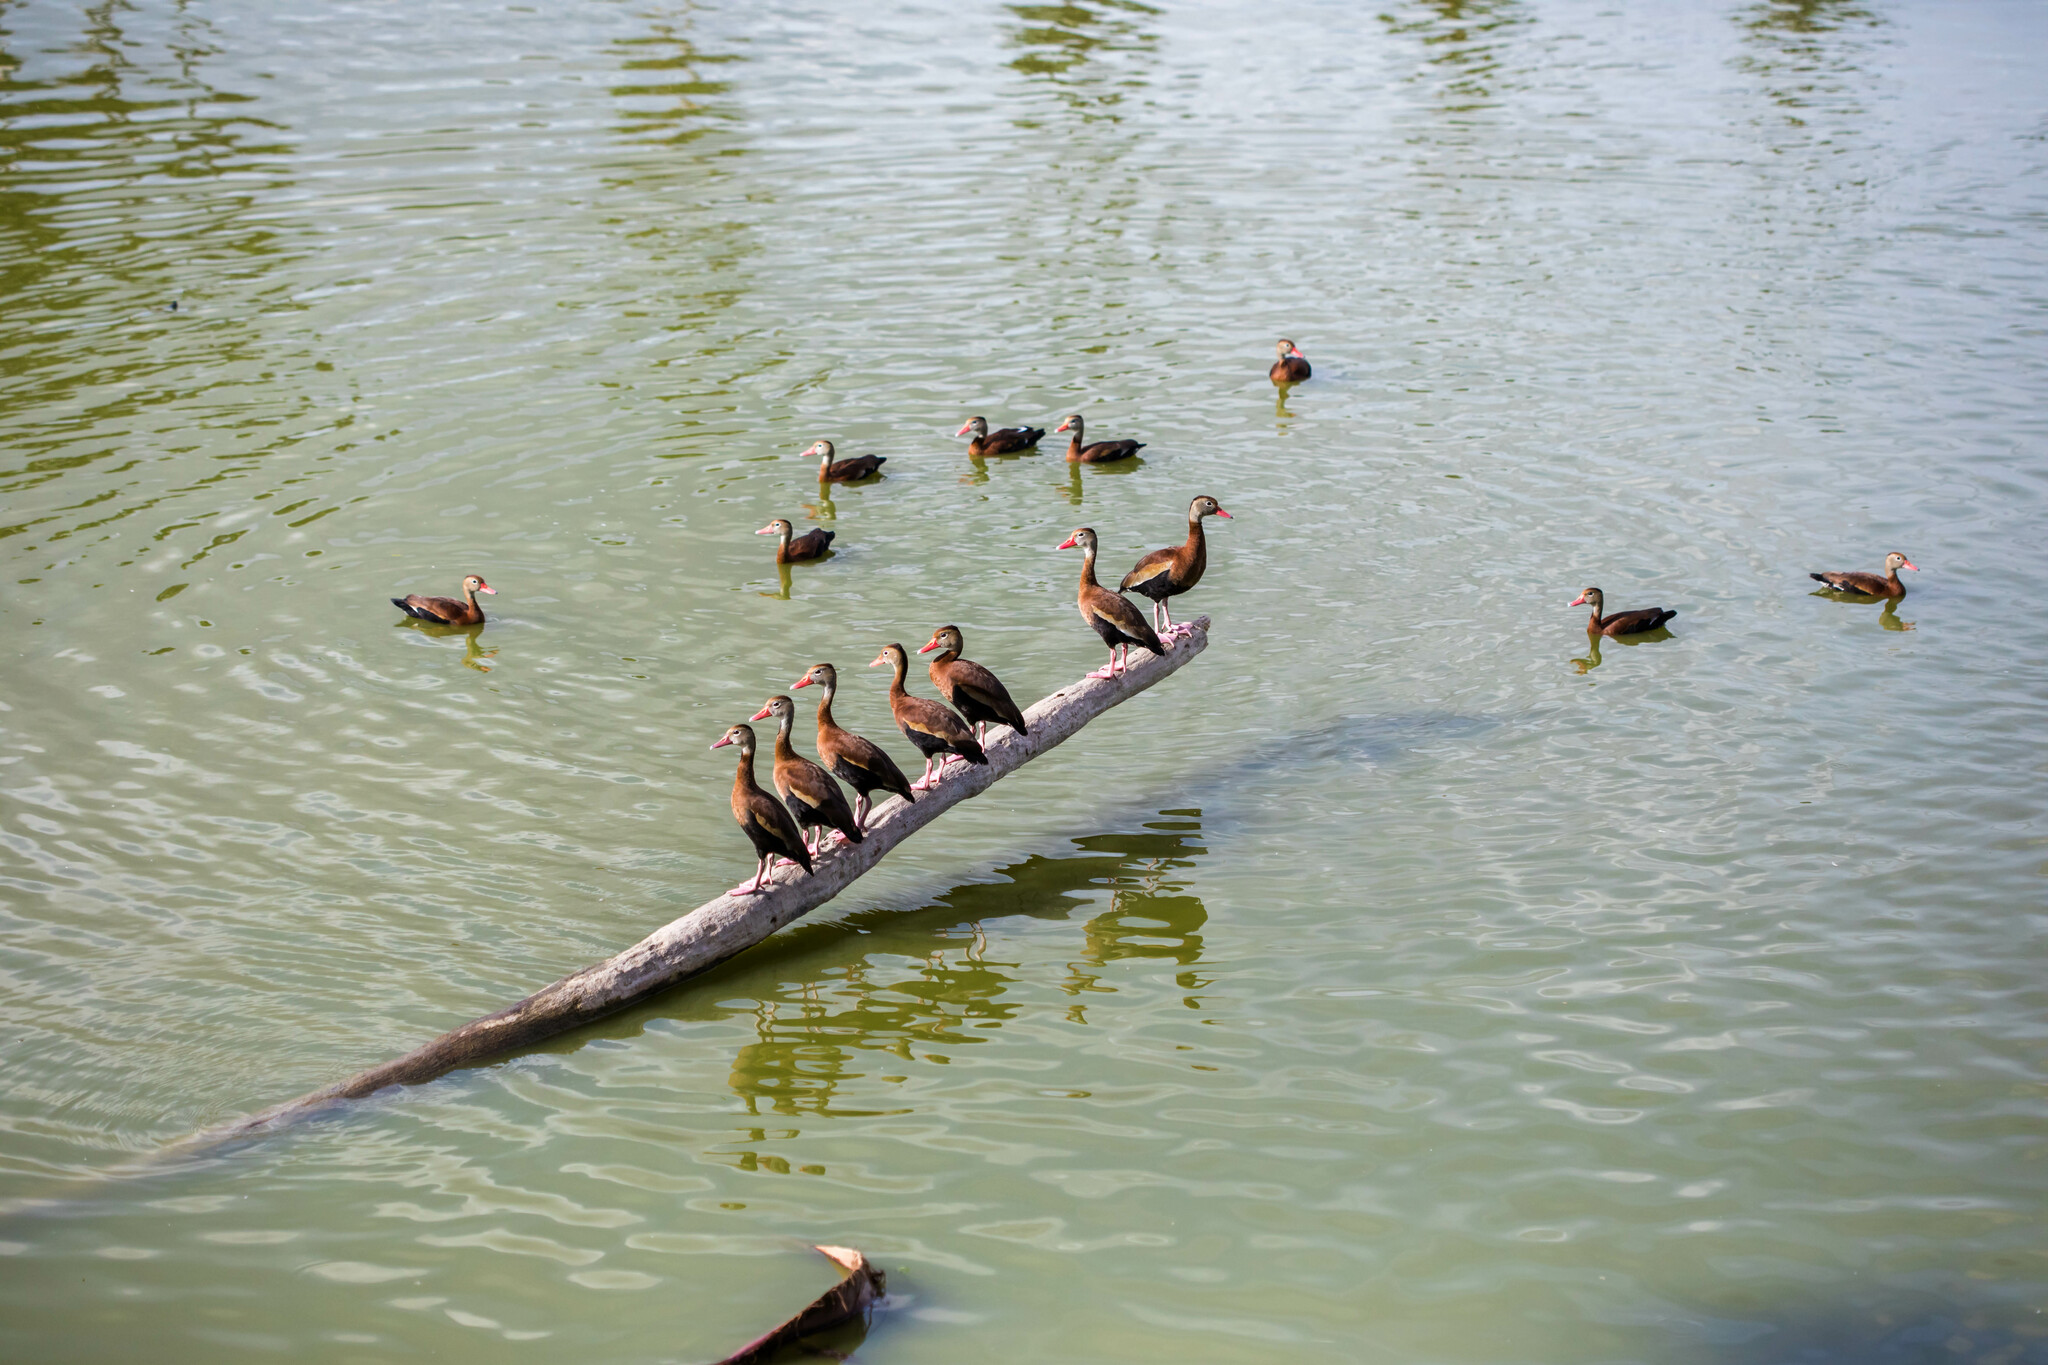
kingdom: Animalia
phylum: Chordata
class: Aves
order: Anseriformes
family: Anatidae
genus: Dendrocygna
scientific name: Dendrocygna autumnalis
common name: Black-bellied whistling duck
